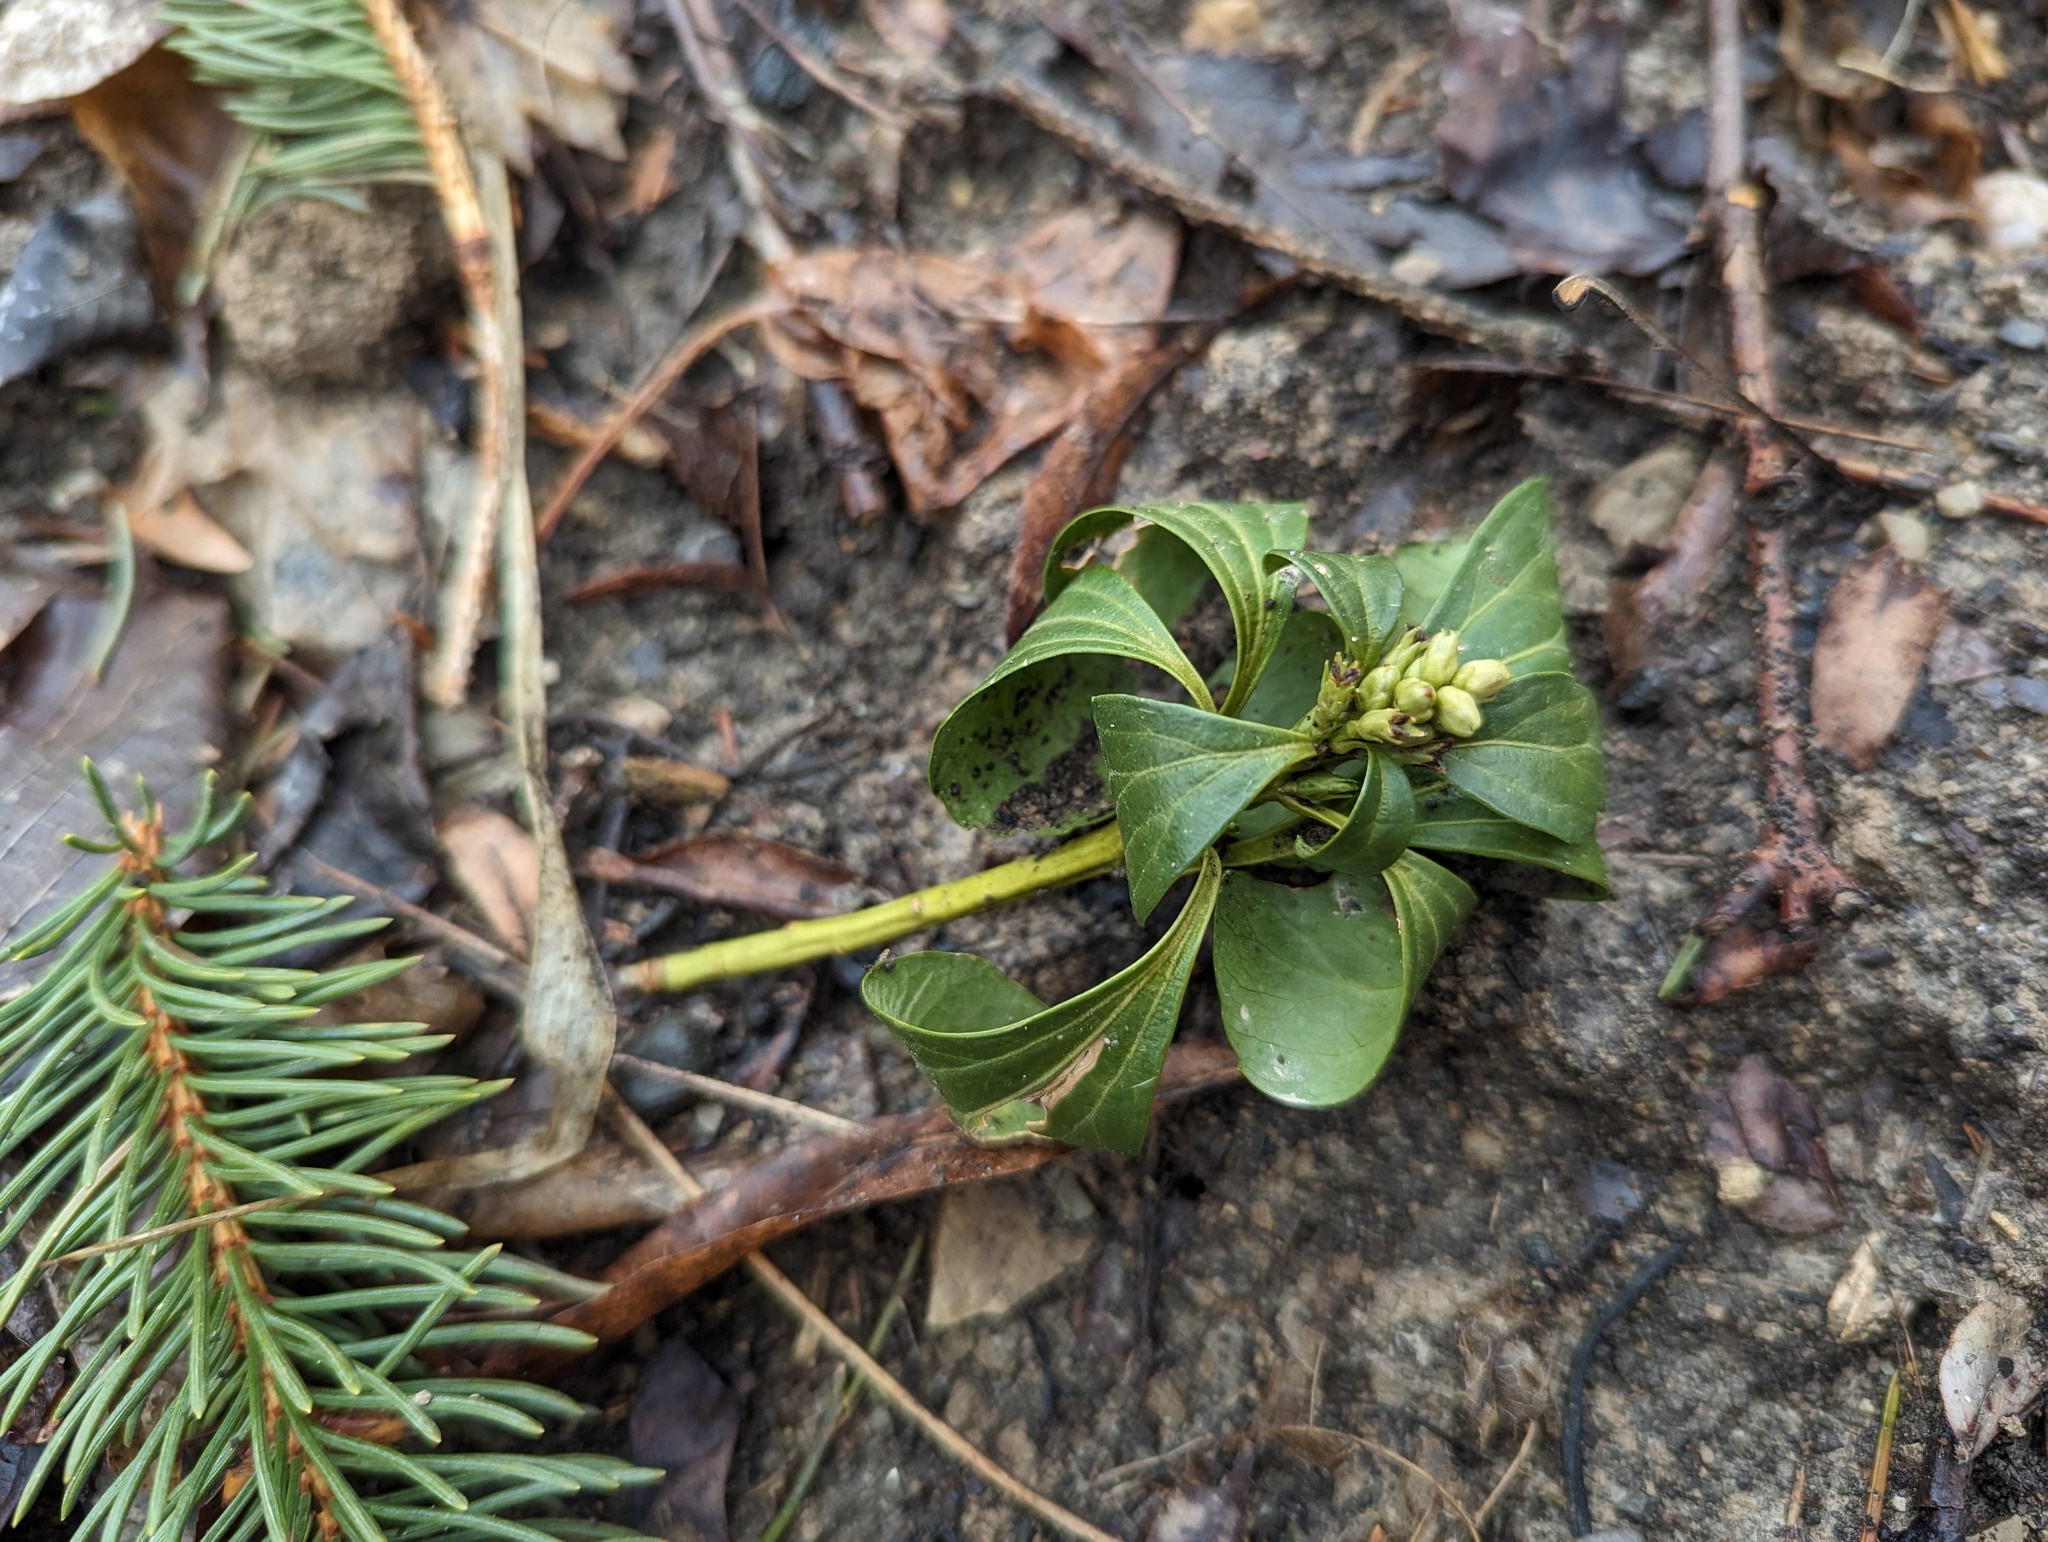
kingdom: Plantae
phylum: Tracheophyta
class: Magnoliopsida
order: Buxales
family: Buxaceae
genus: Pachysandra
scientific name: Pachysandra terminalis
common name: Japanese pachysandra
